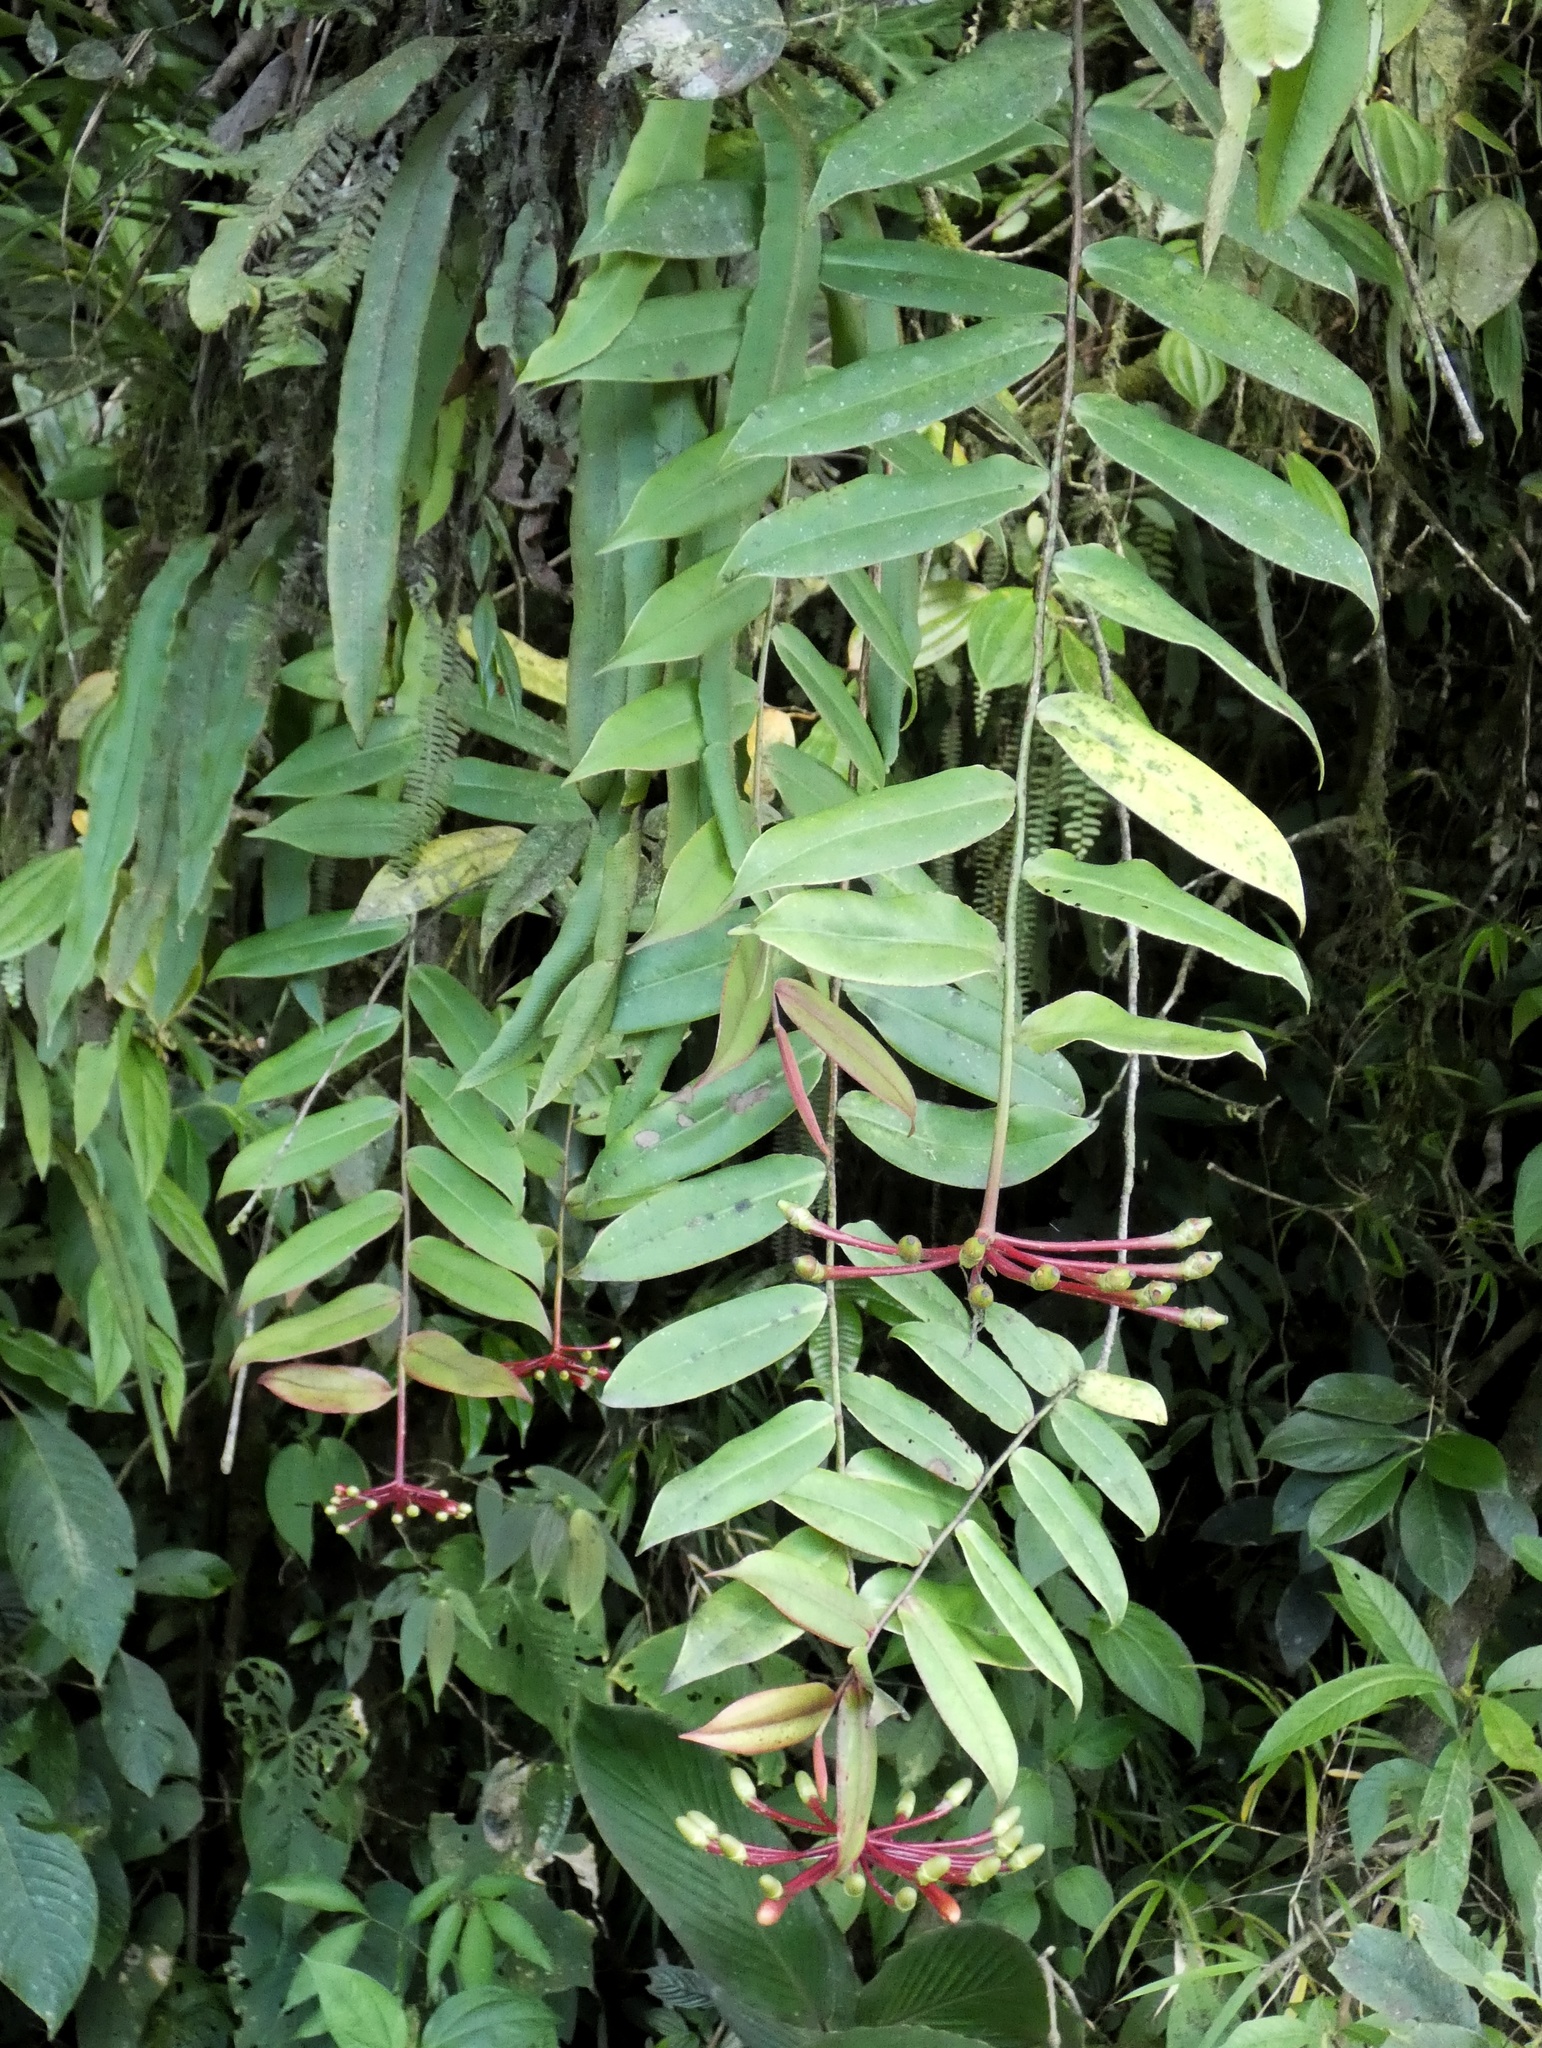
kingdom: Plantae
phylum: Tracheophyta
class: Magnoliopsida
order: Ericales
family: Marcgraviaceae
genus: Marcgravia
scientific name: Marcgravia brownei
